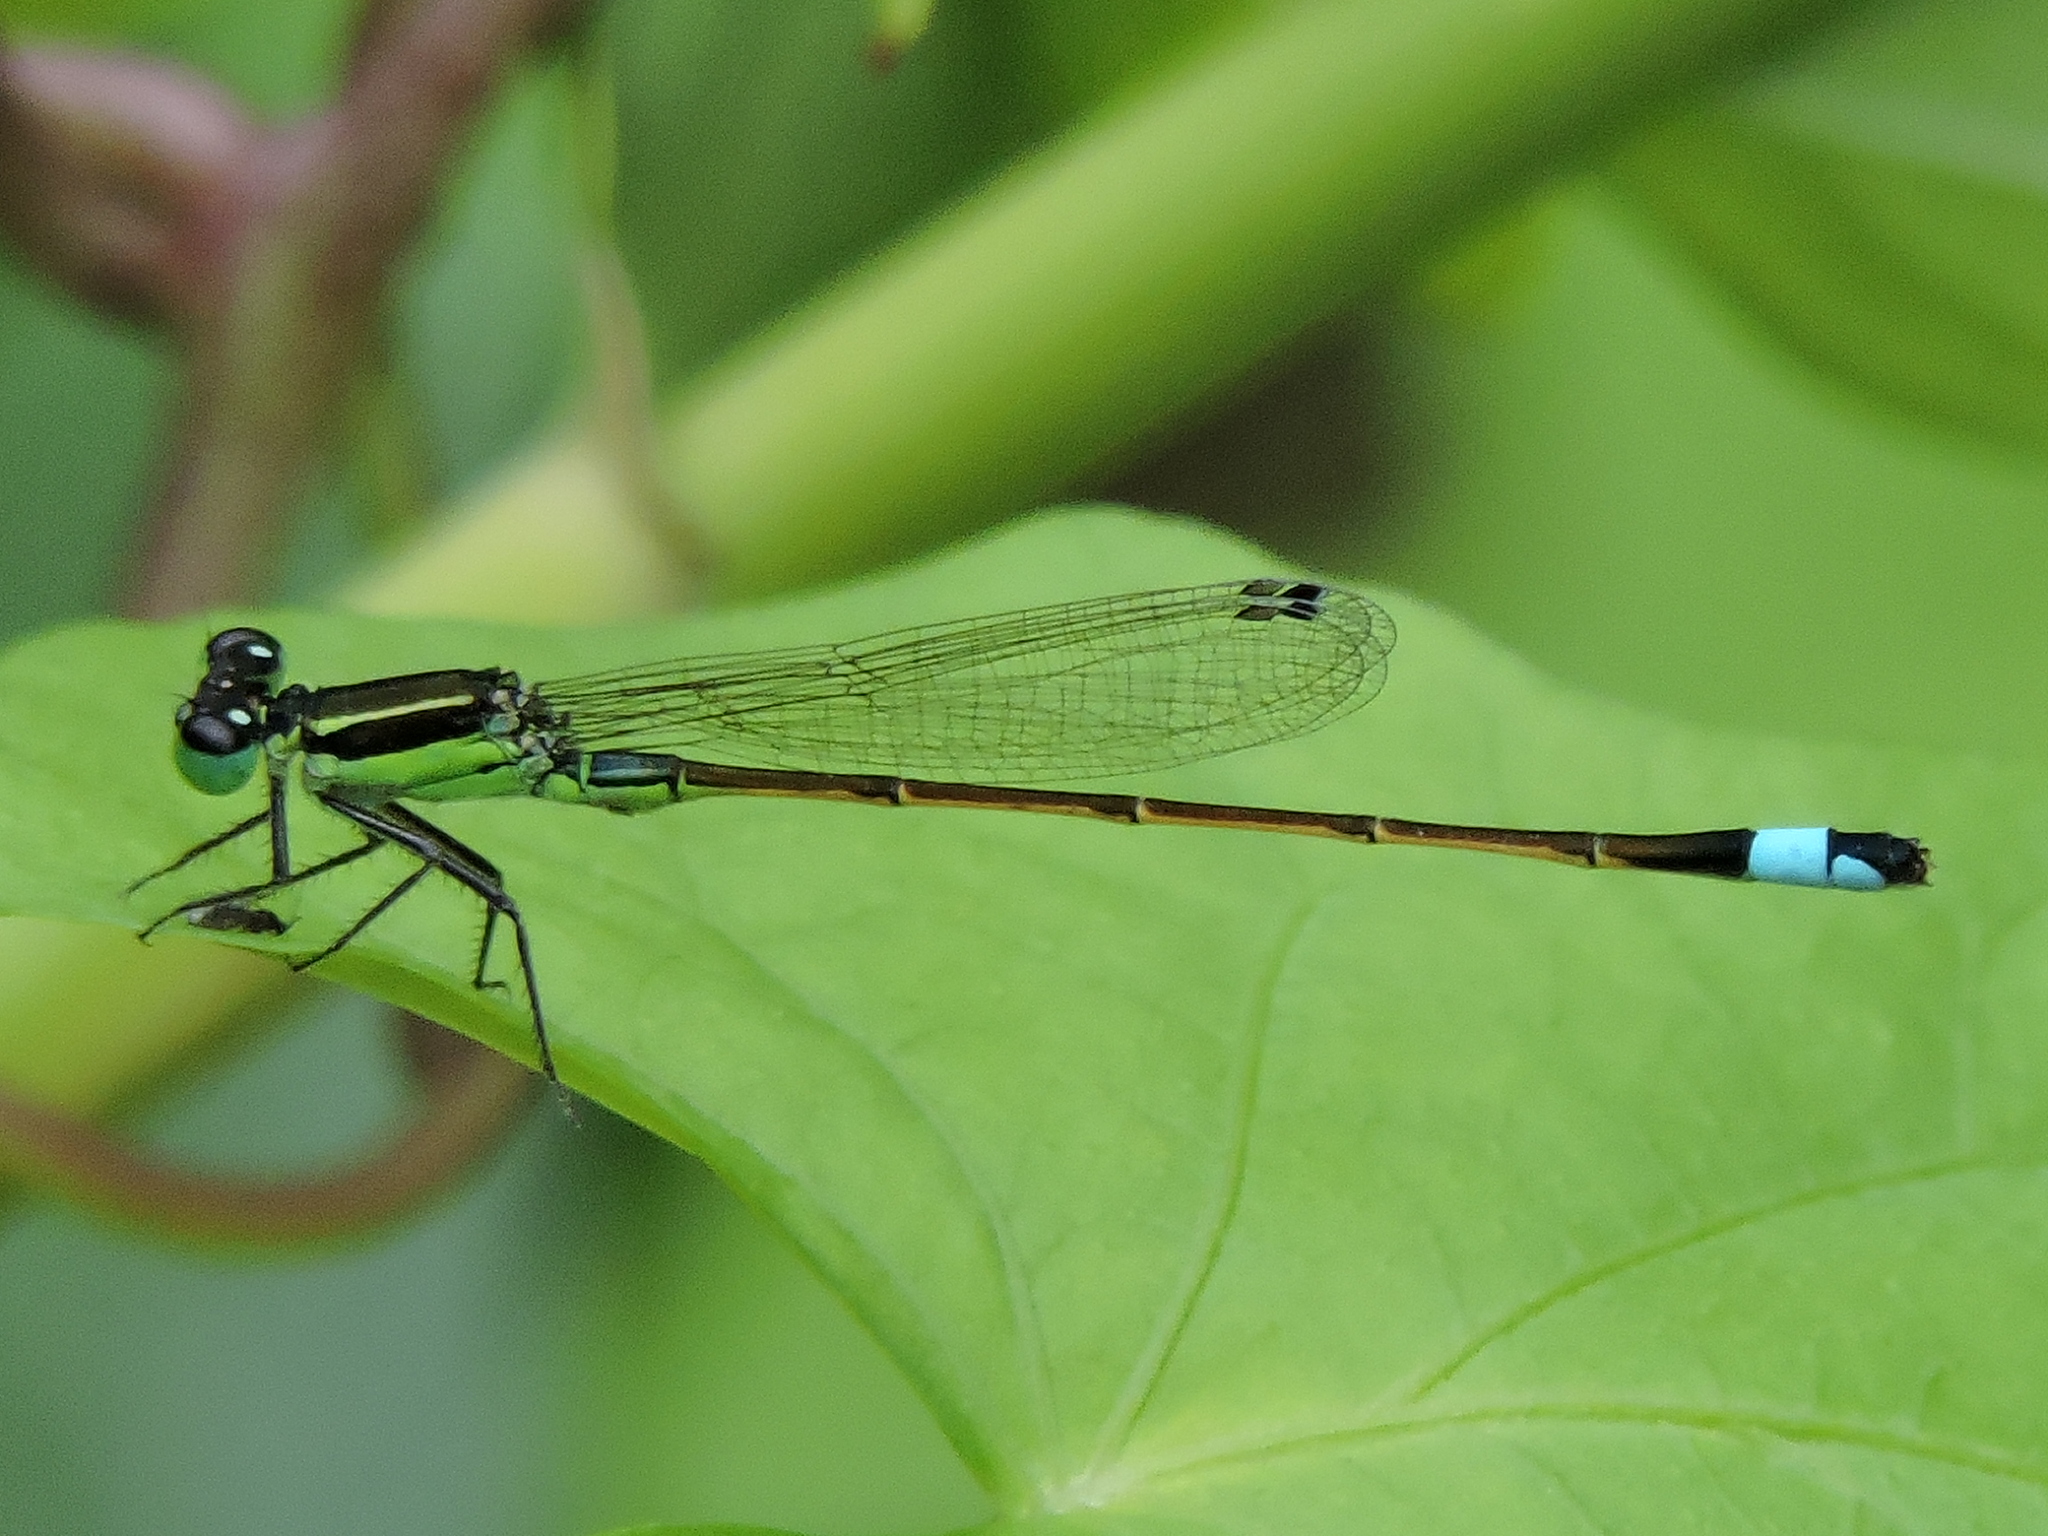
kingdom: Animalia
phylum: Arthropoda
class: Insecta
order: Odonata
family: Coenagrionidae
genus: Ischnura
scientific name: Ischnura ramburii
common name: Rambur's forktail
